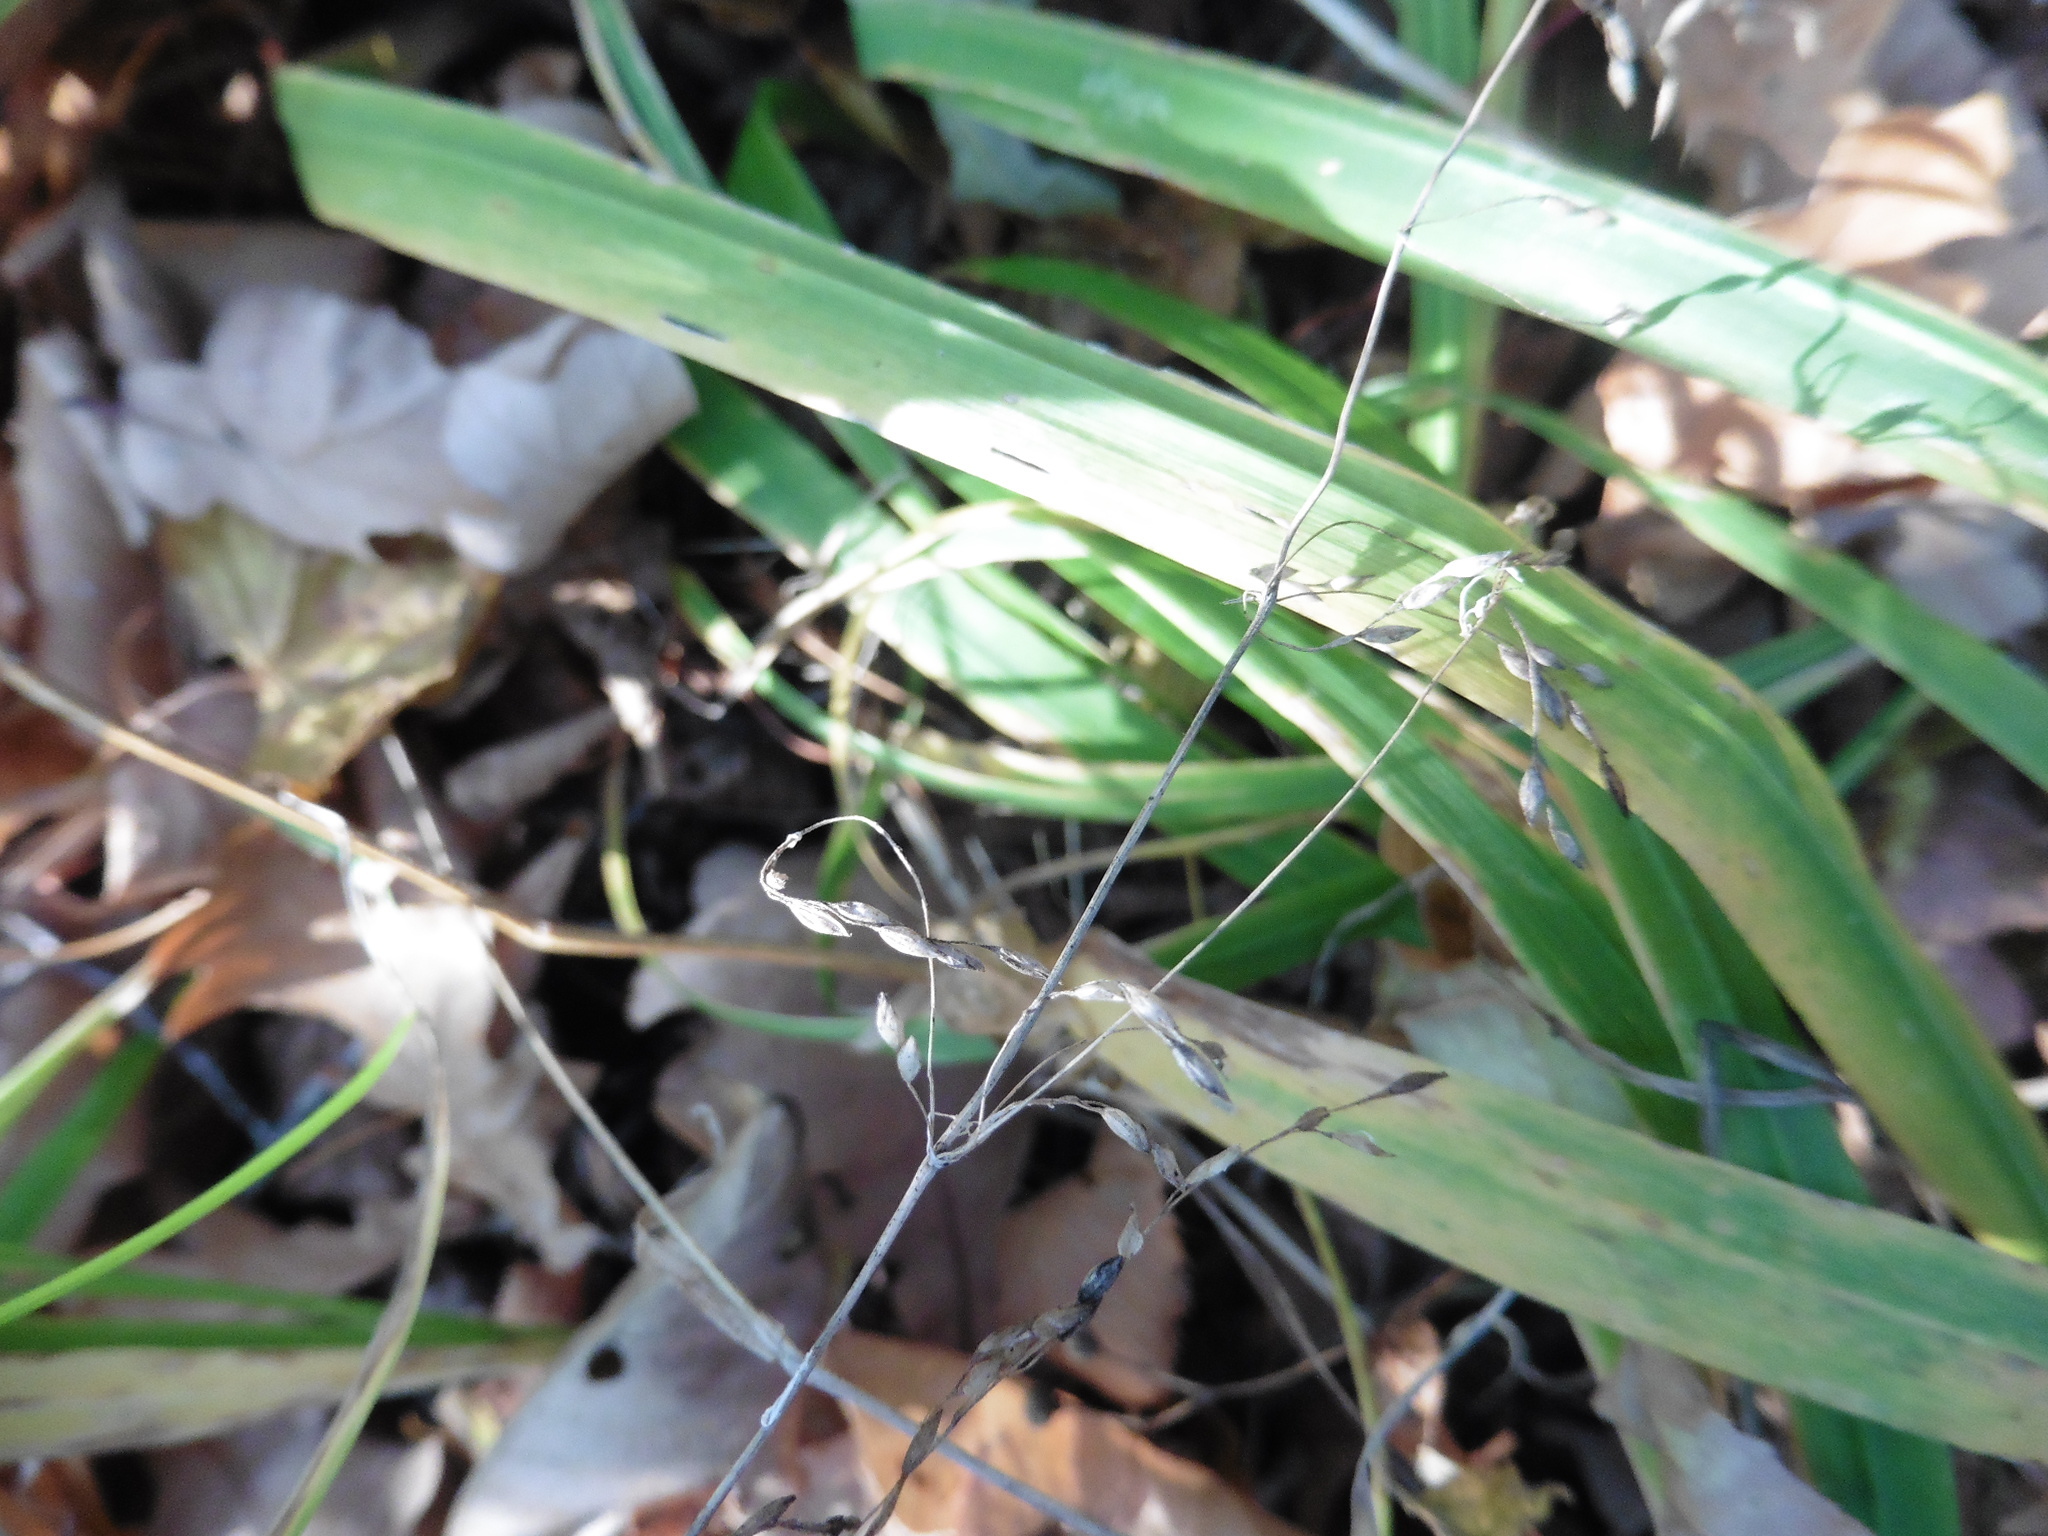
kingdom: Plantae
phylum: Tracheophyta
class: Liliopsida
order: Poales
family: Poaceae
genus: Milium
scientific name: Milium effusum
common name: Wood millet
